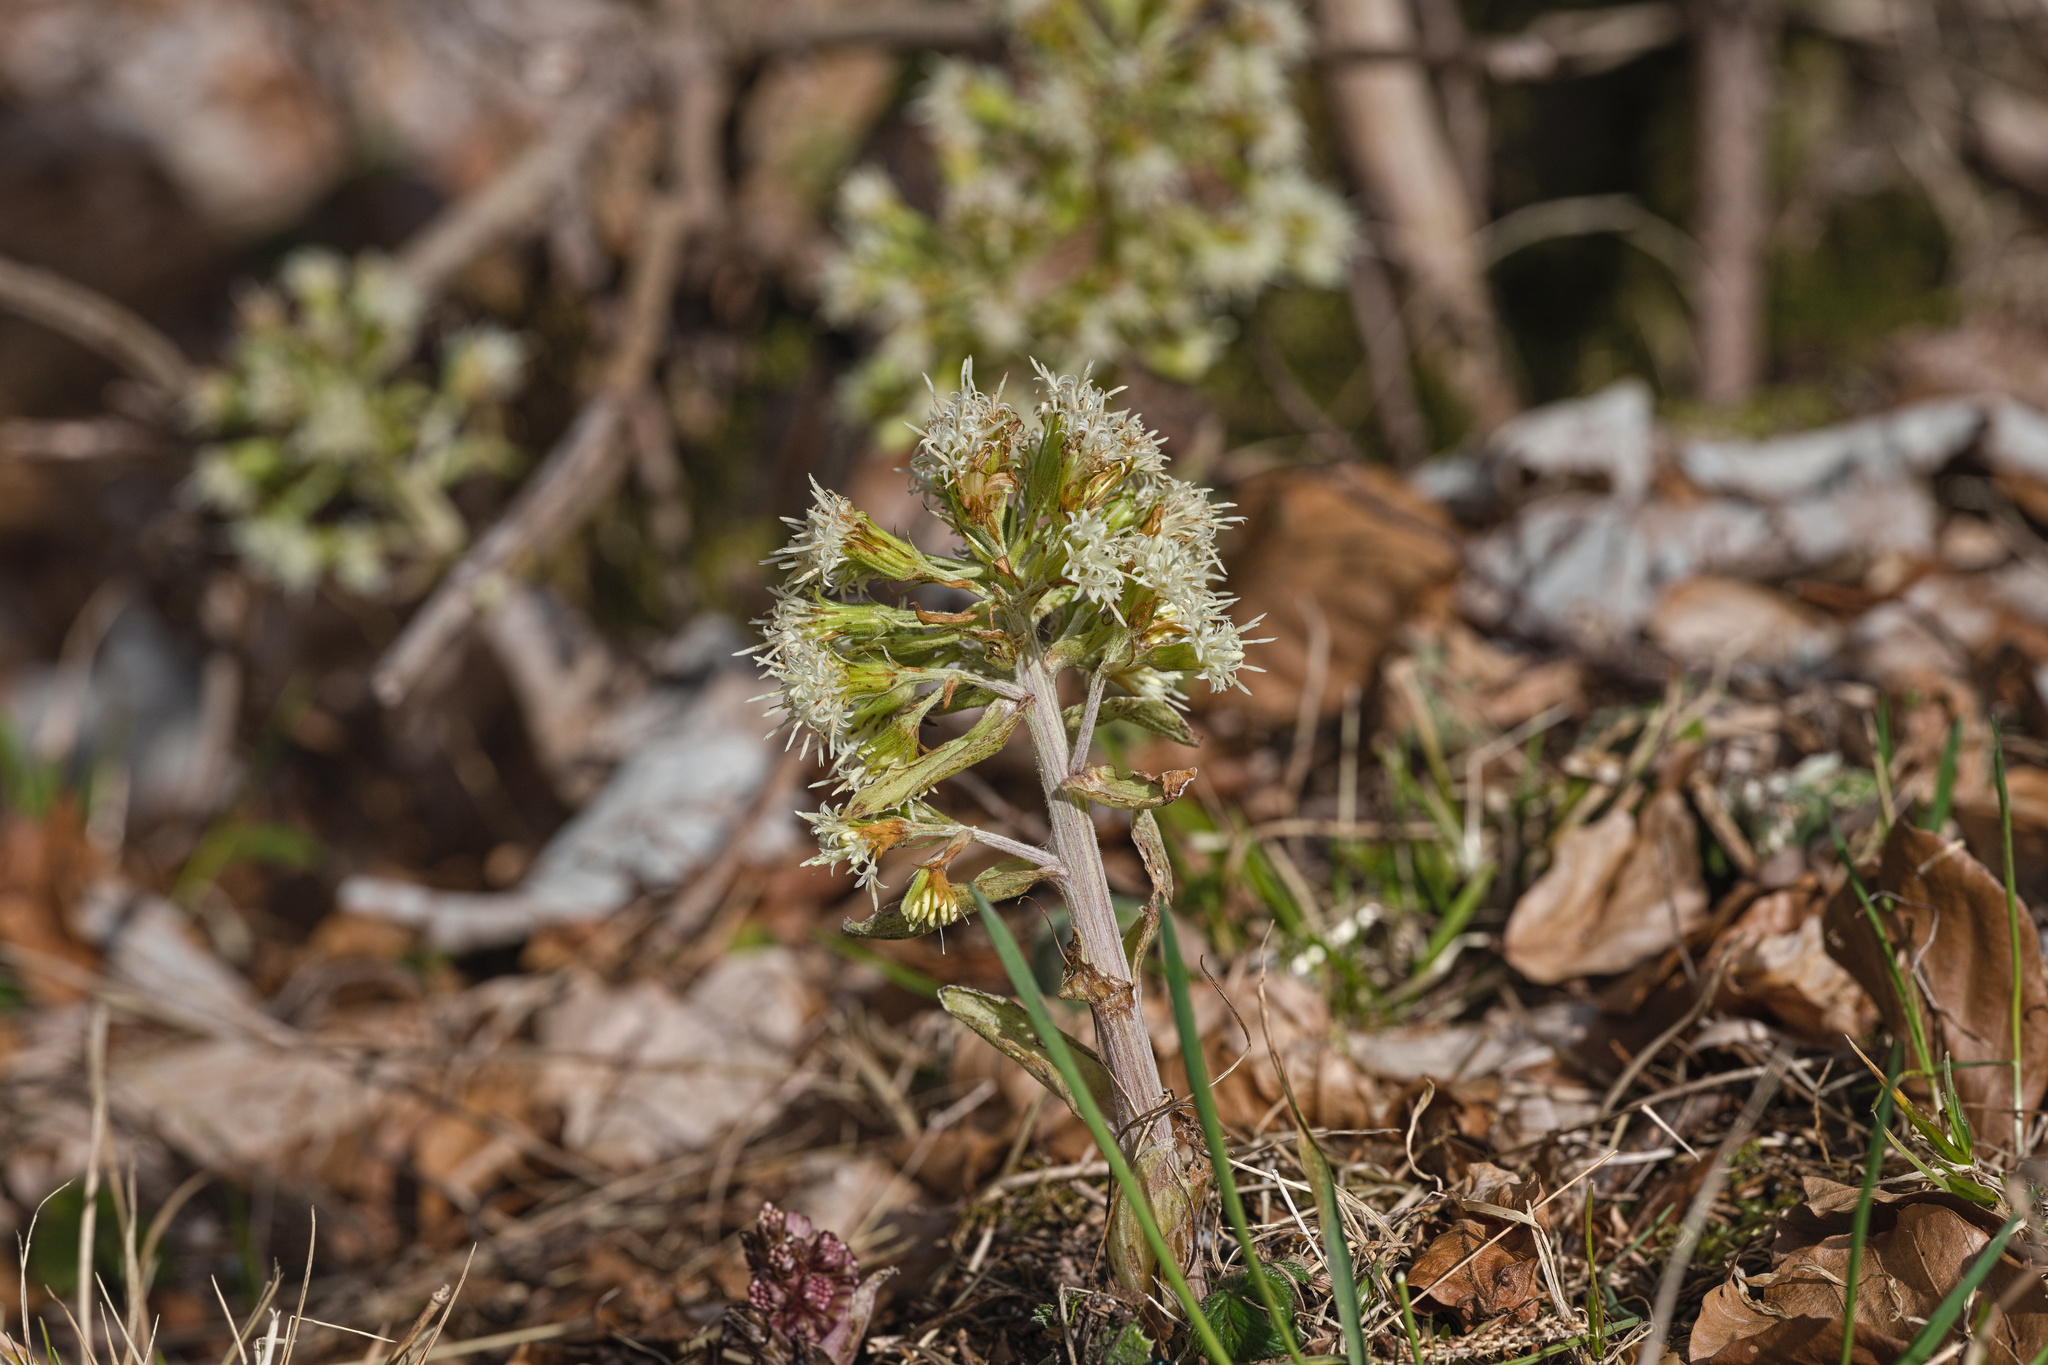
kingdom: Plantae
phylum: Tracheophyta
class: Magnoliopsida
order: Asterales
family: Asteraceae
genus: Petasites
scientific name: Petasites albus
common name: White butterbur
